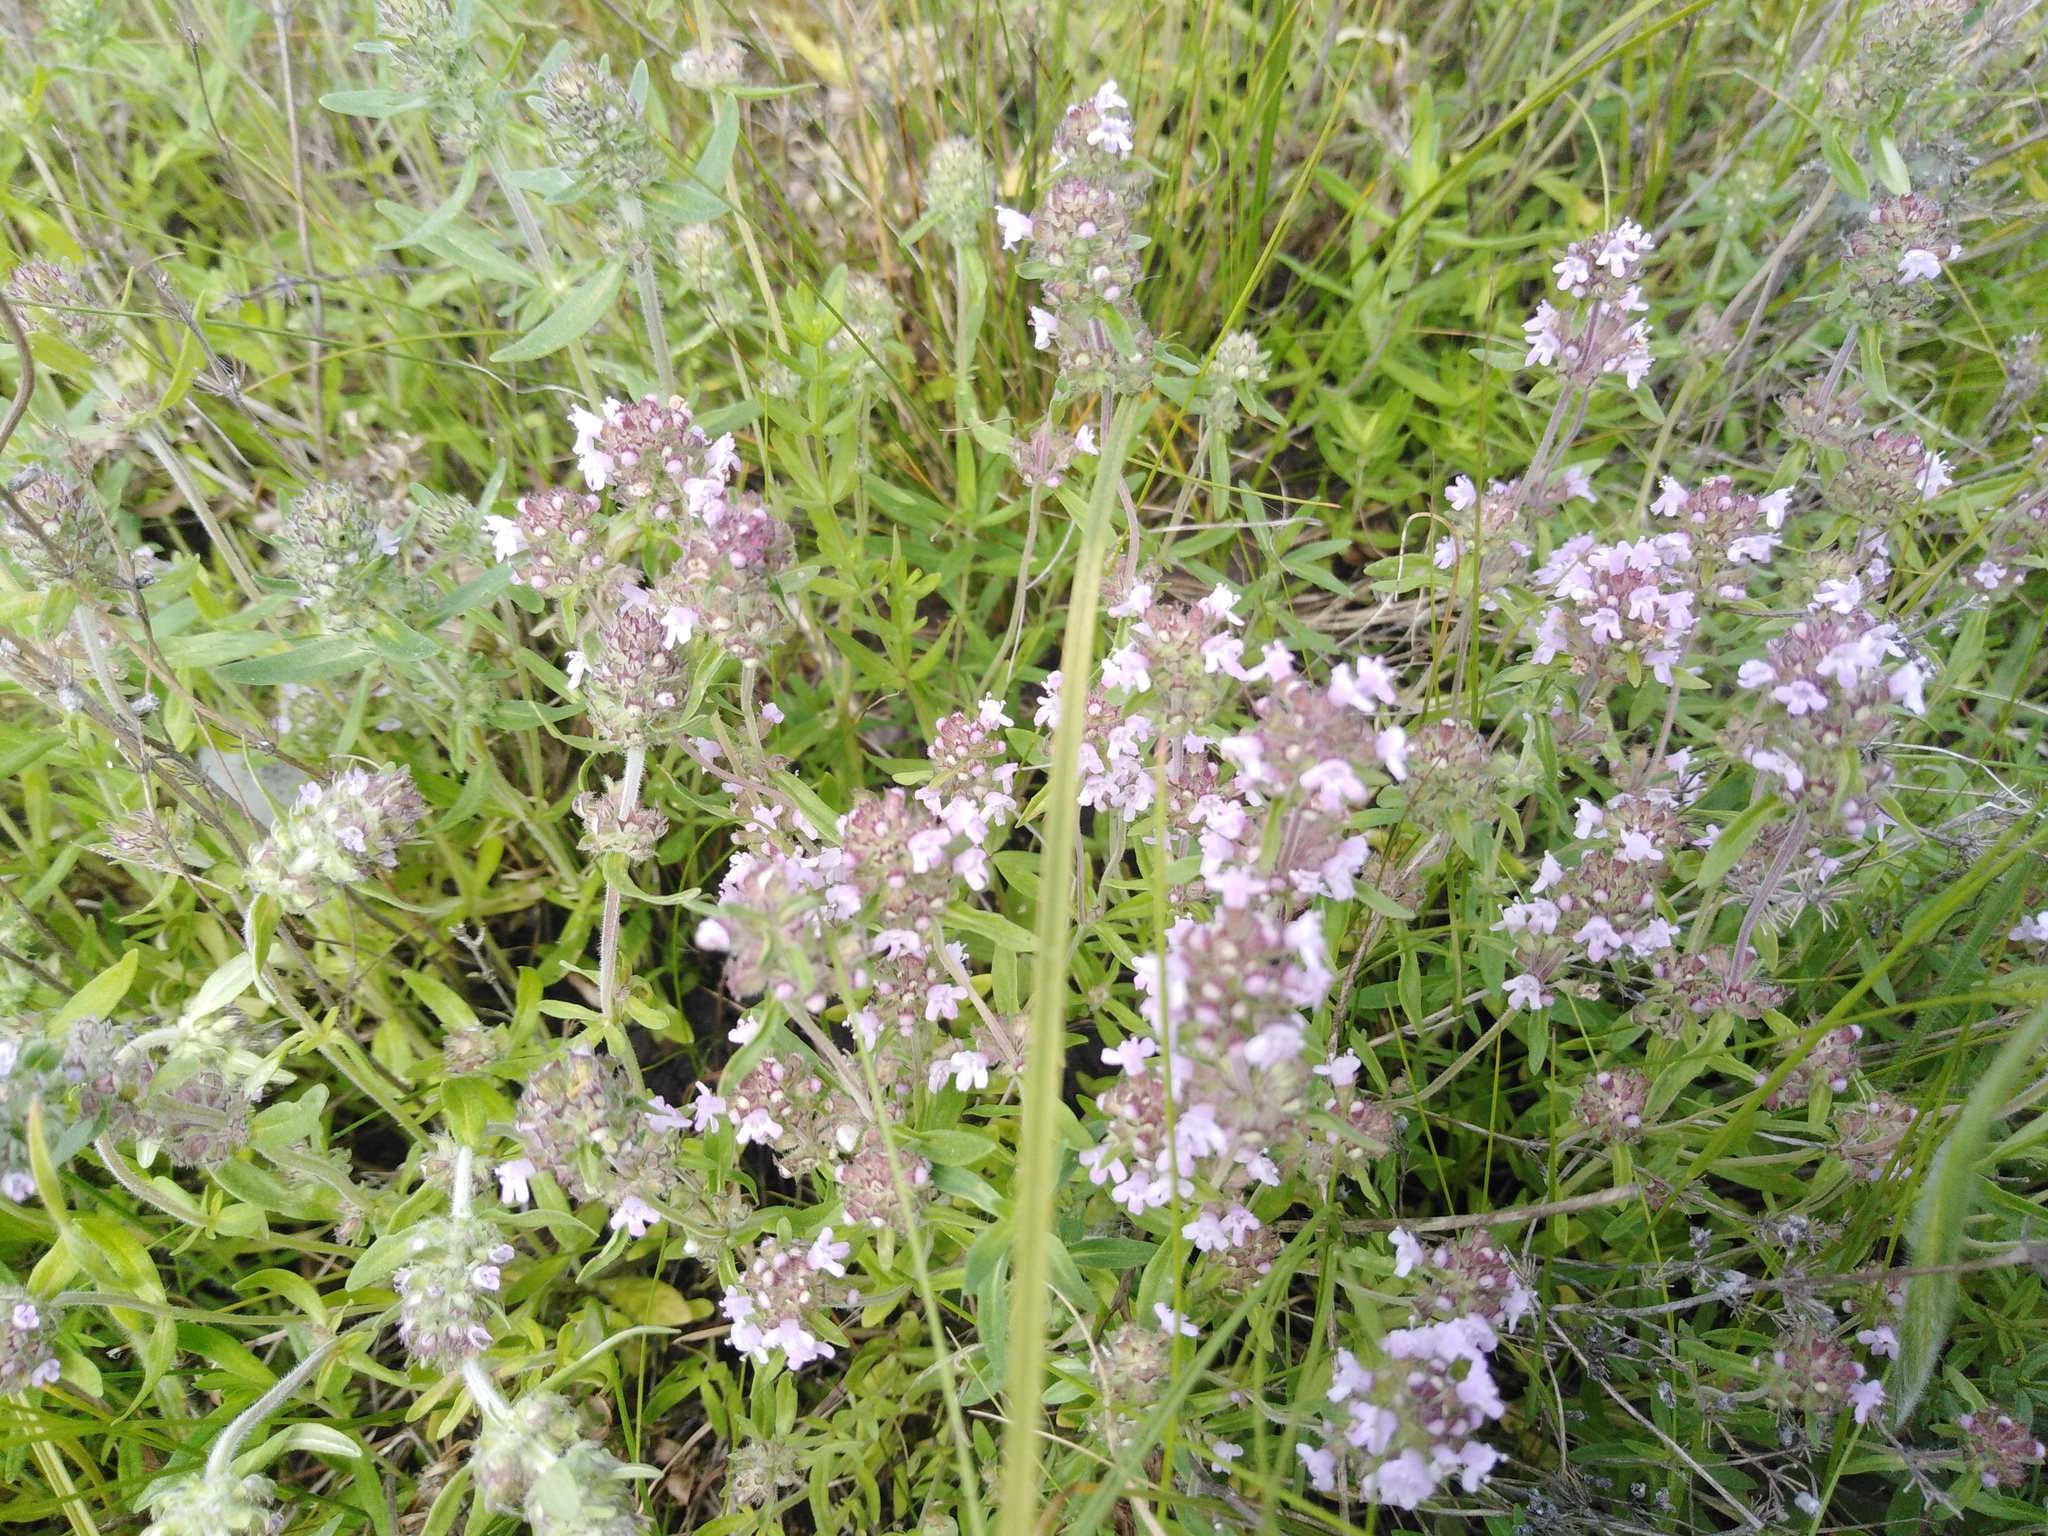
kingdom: Plantae
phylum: Tracheophyta
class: Magnoliopsida
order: Lamiales
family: Lamiaceae
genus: Thymus
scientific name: Thymus pannonicus
